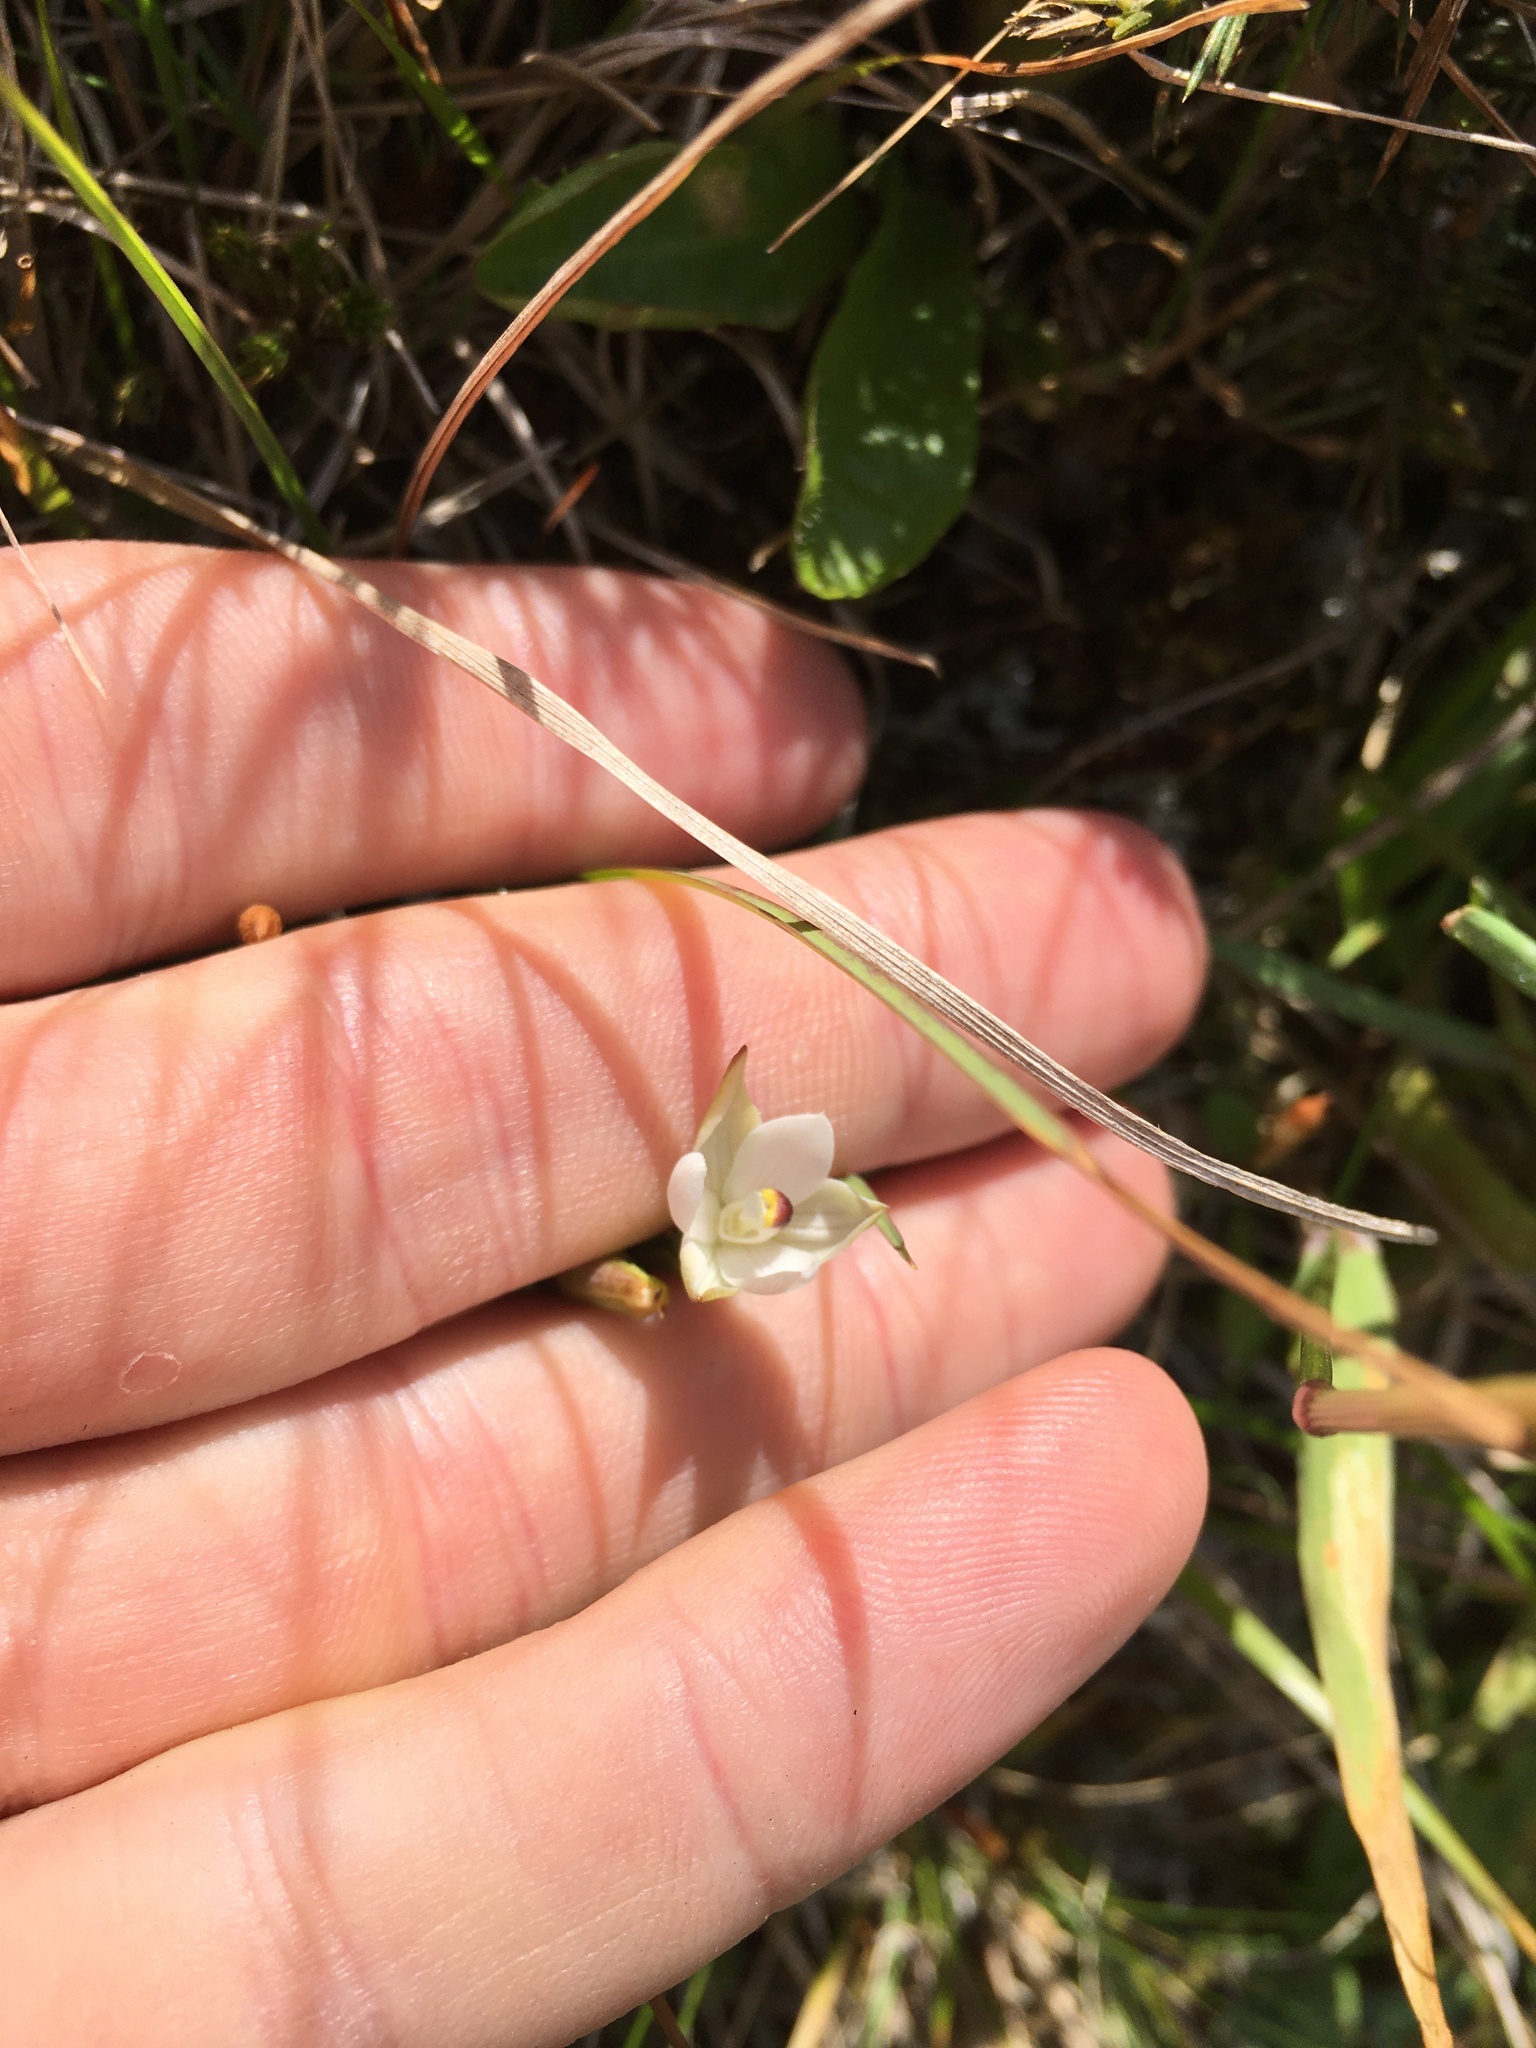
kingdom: Plantae
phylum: Tracheophyta
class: Liliopsida
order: Asparagales
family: Orchidaceae
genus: Thelymitra
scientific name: Thelymitra longifolia
